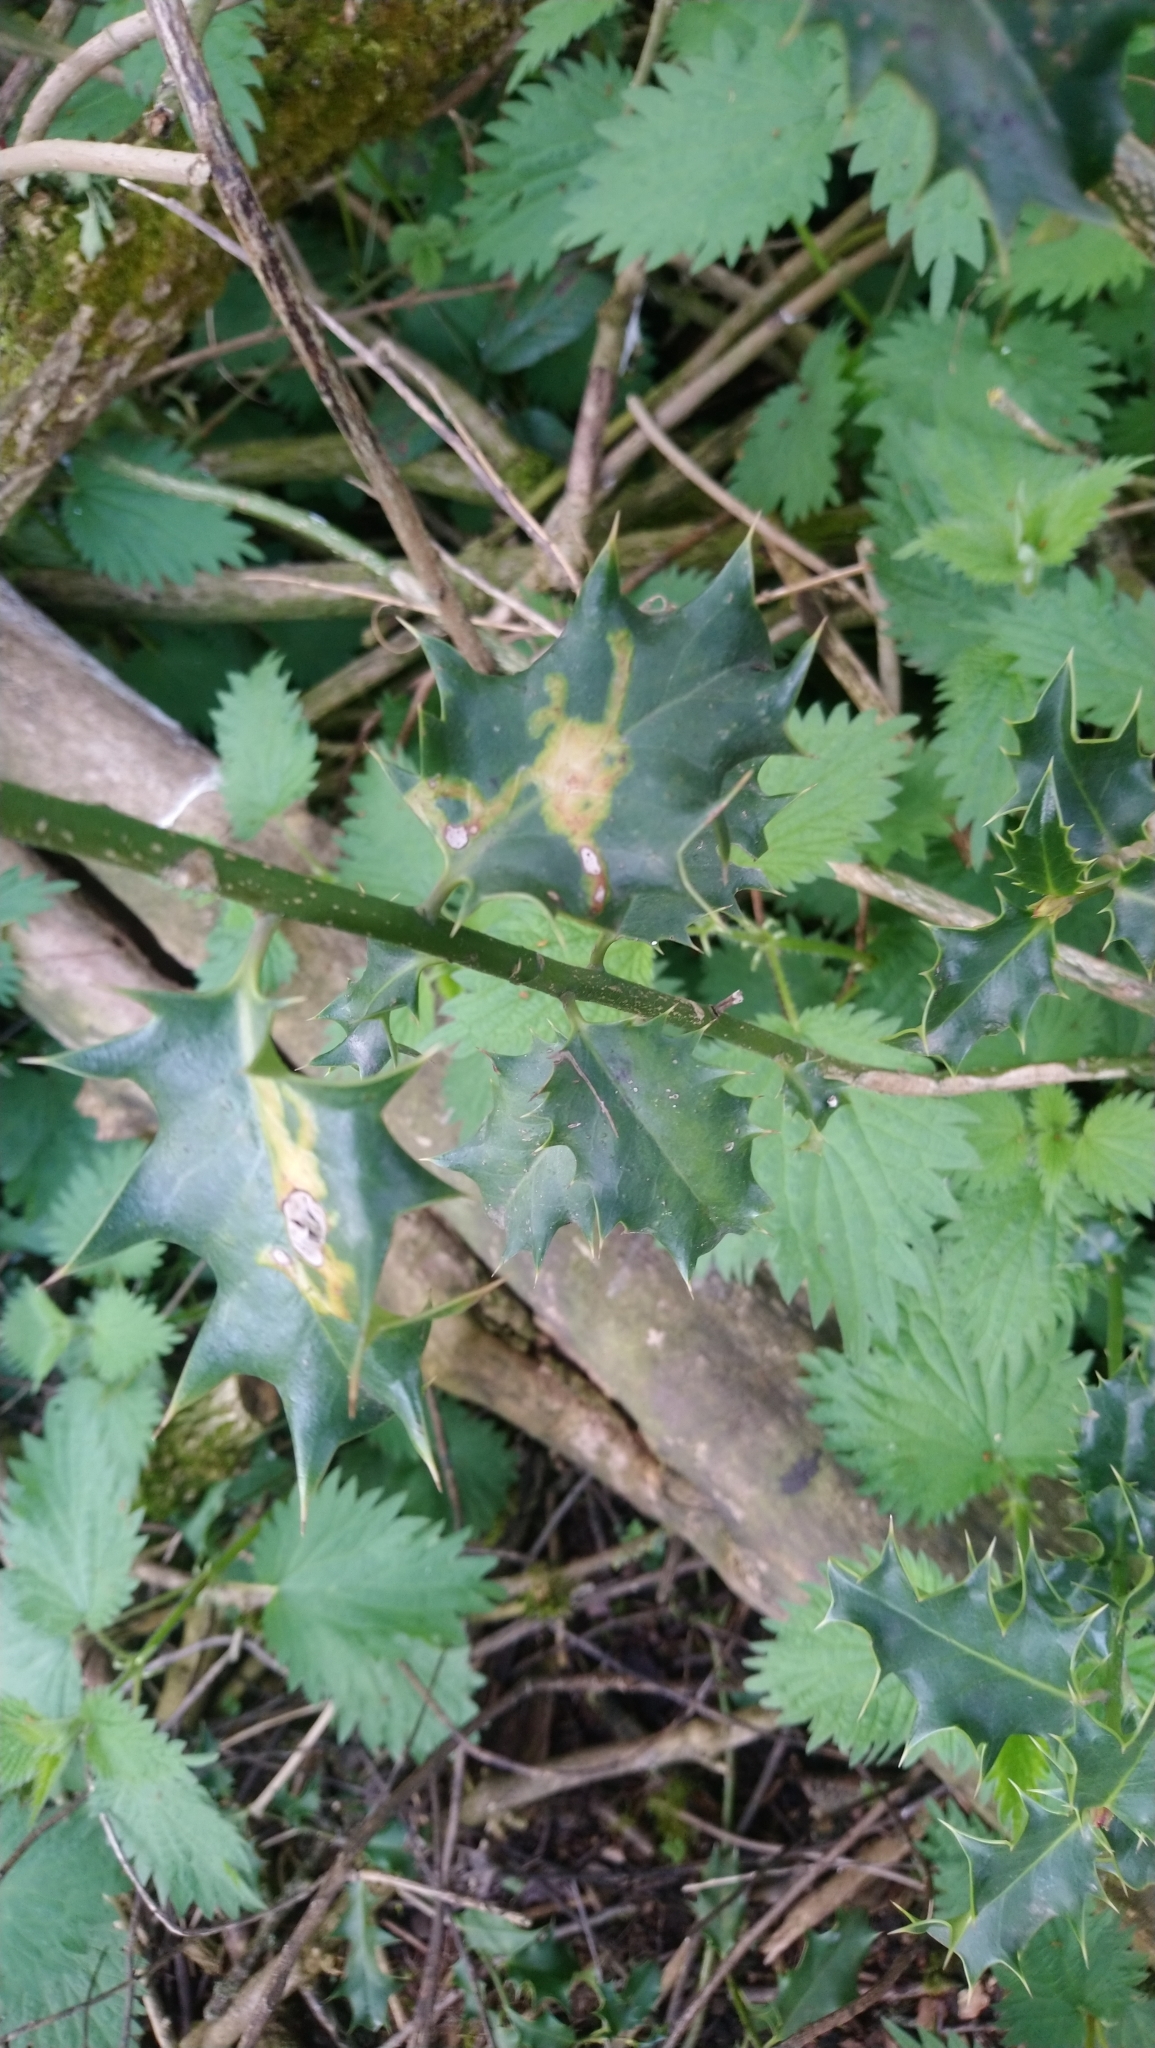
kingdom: Animalia
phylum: Arthropoda
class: Insecta
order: Diptera
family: Agromyzidae
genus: Phytomyza
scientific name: Phytomyza ilicis
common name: Holly leafminer
